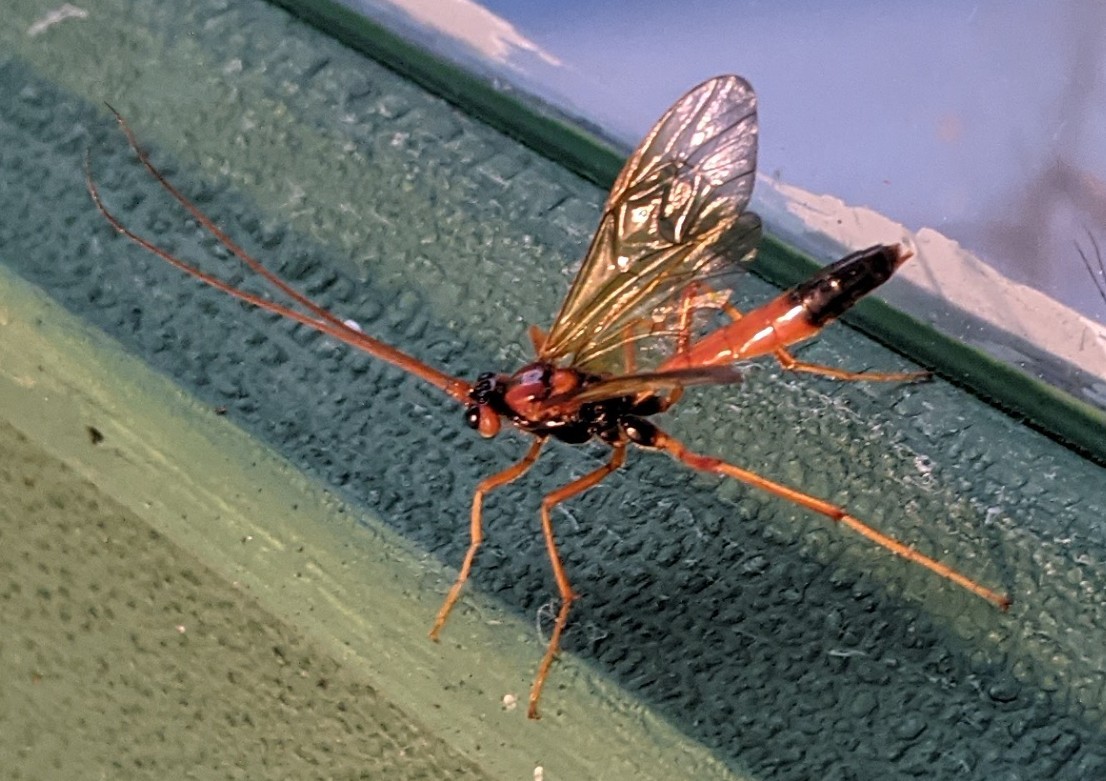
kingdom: Animalia
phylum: Arthropoda
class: Insecta
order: Hymenoptera
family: Ichneumonidae
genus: Opheltes
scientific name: Opheltes glaucopterus
